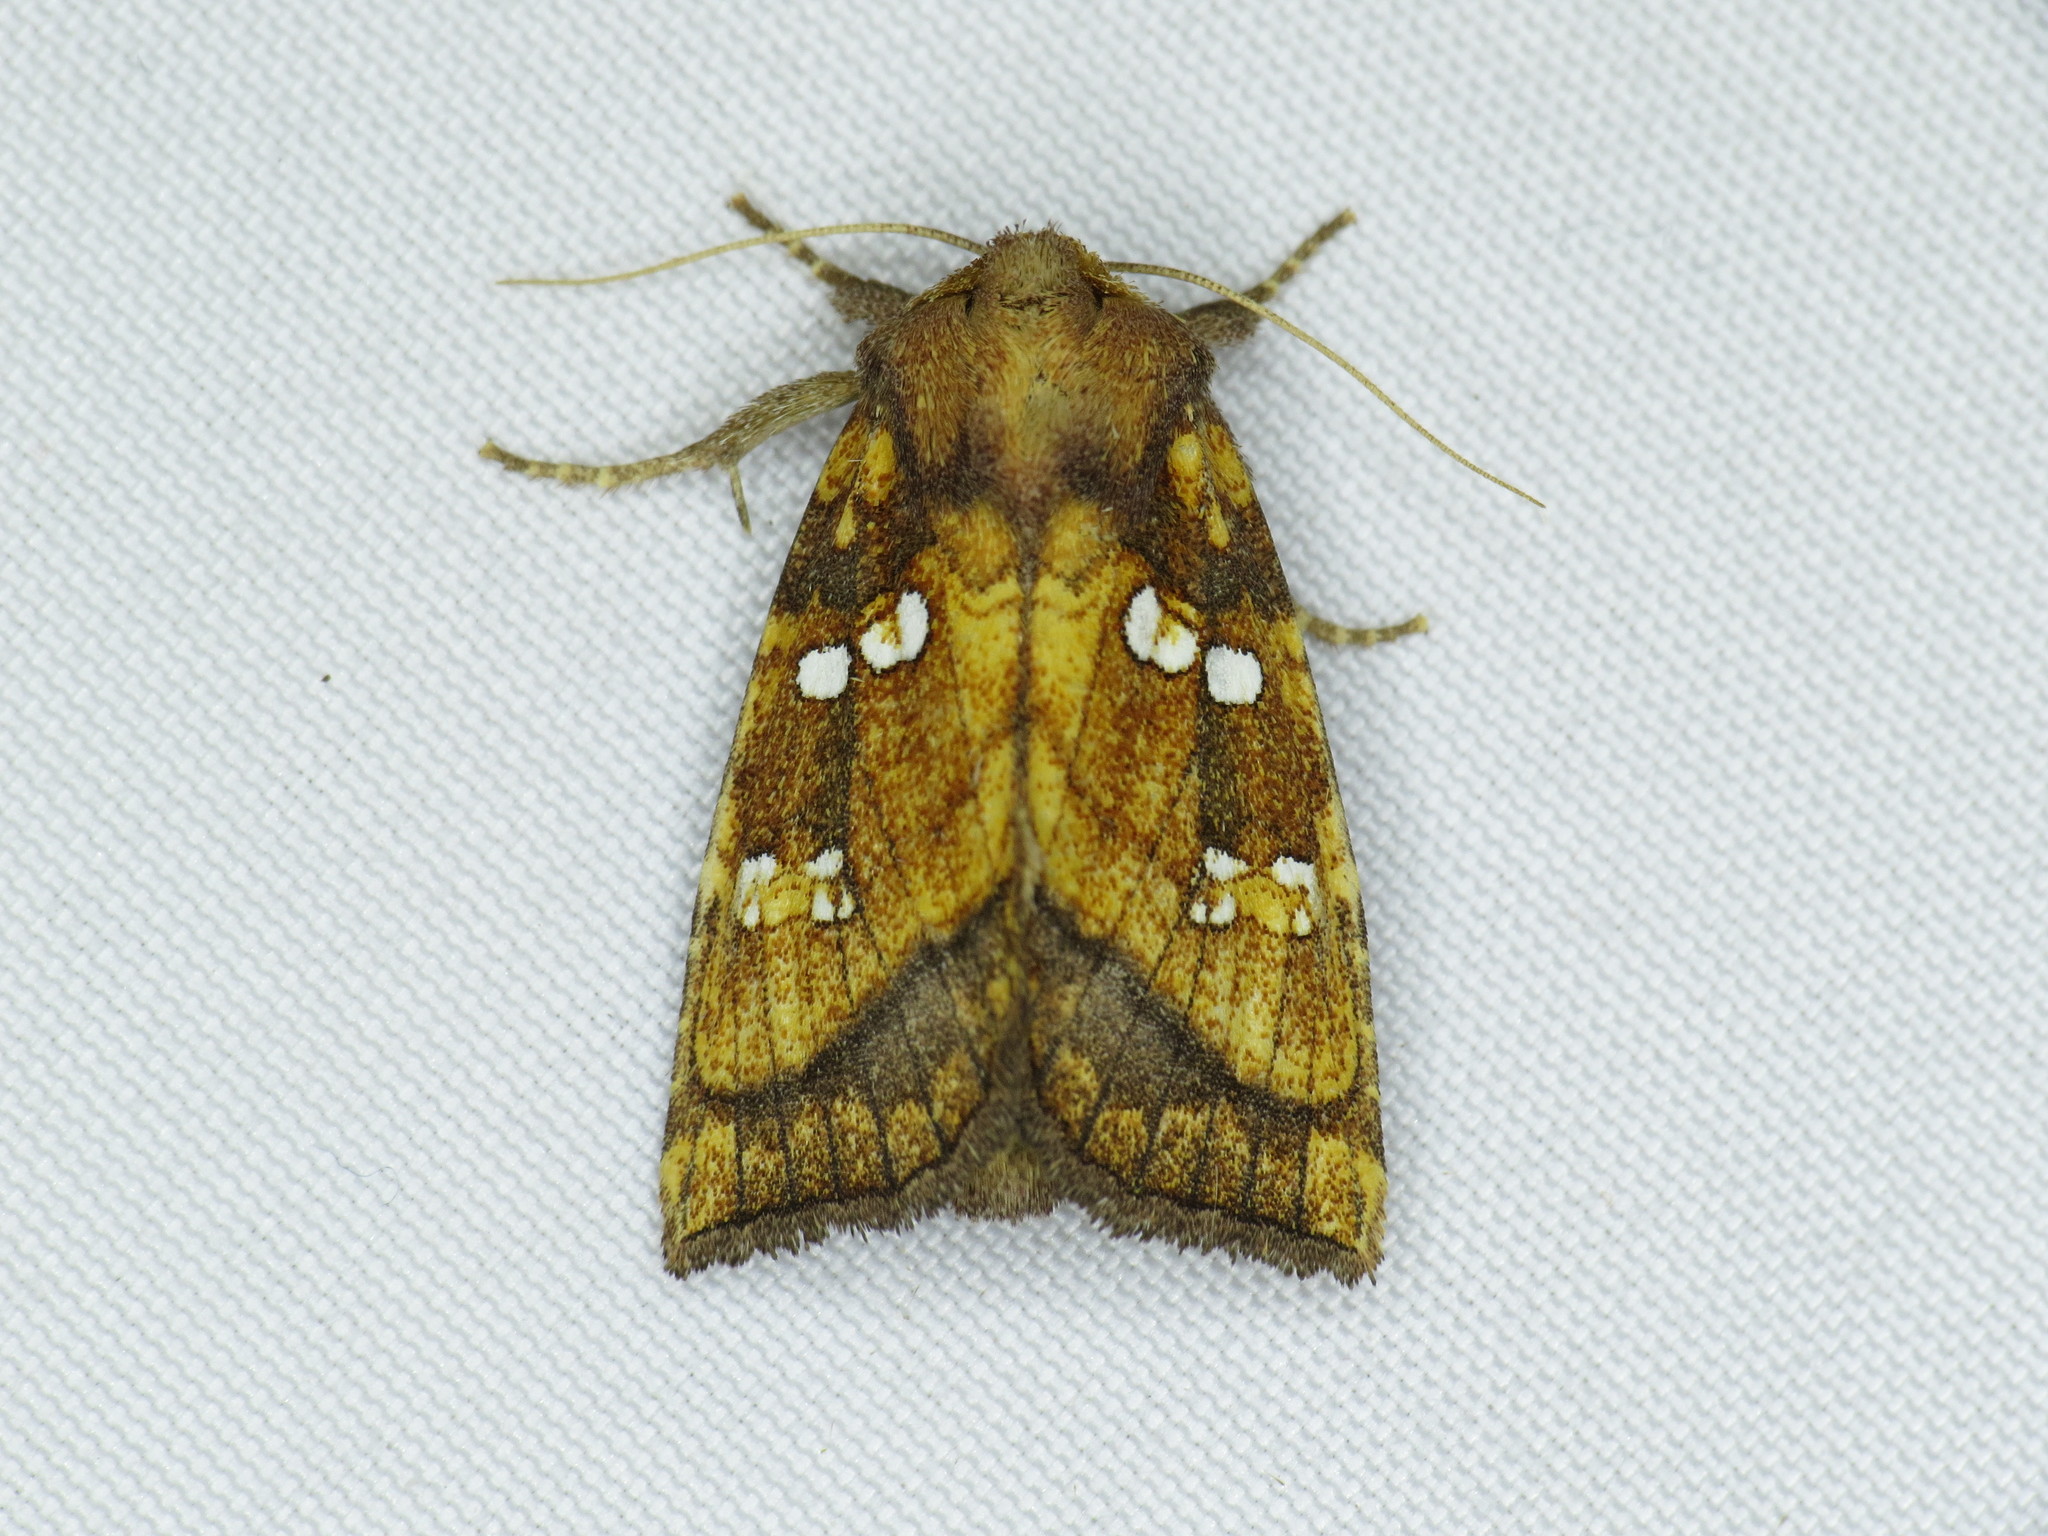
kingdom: Animalia
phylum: Arthropoda
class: Insecta
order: Lepidoptera
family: Noctuidae
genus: Papaipema
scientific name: Papaipema pterisii
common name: Bracken borer moth
